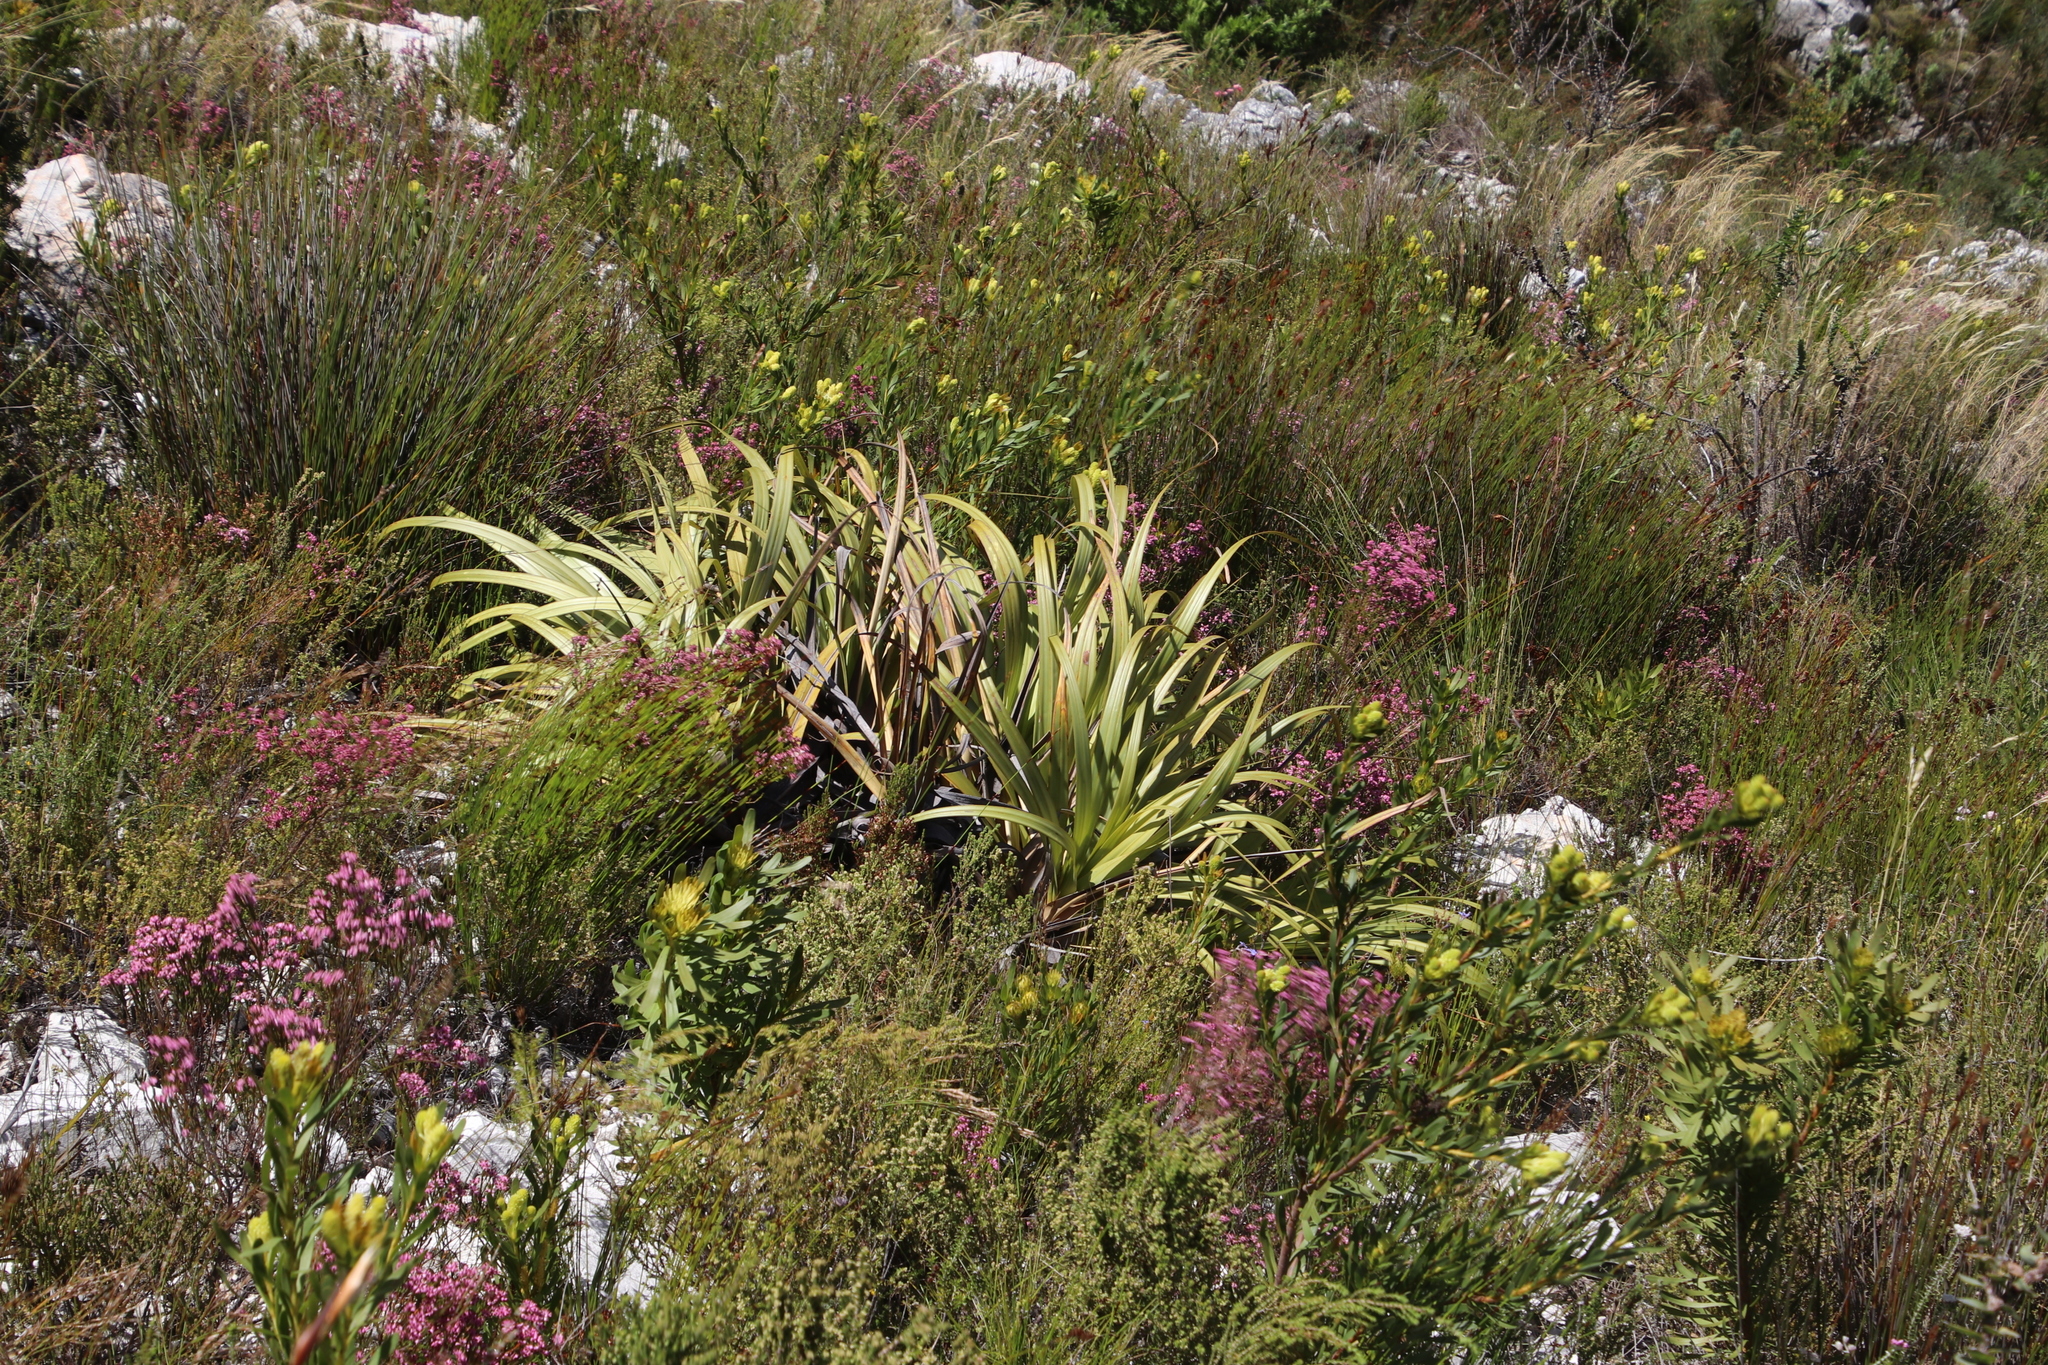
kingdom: Plantae
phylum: Tracheophyta
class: Liliopsida
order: Poales
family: Cyperaceae
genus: Tetraria
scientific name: Tetraria thermalis
